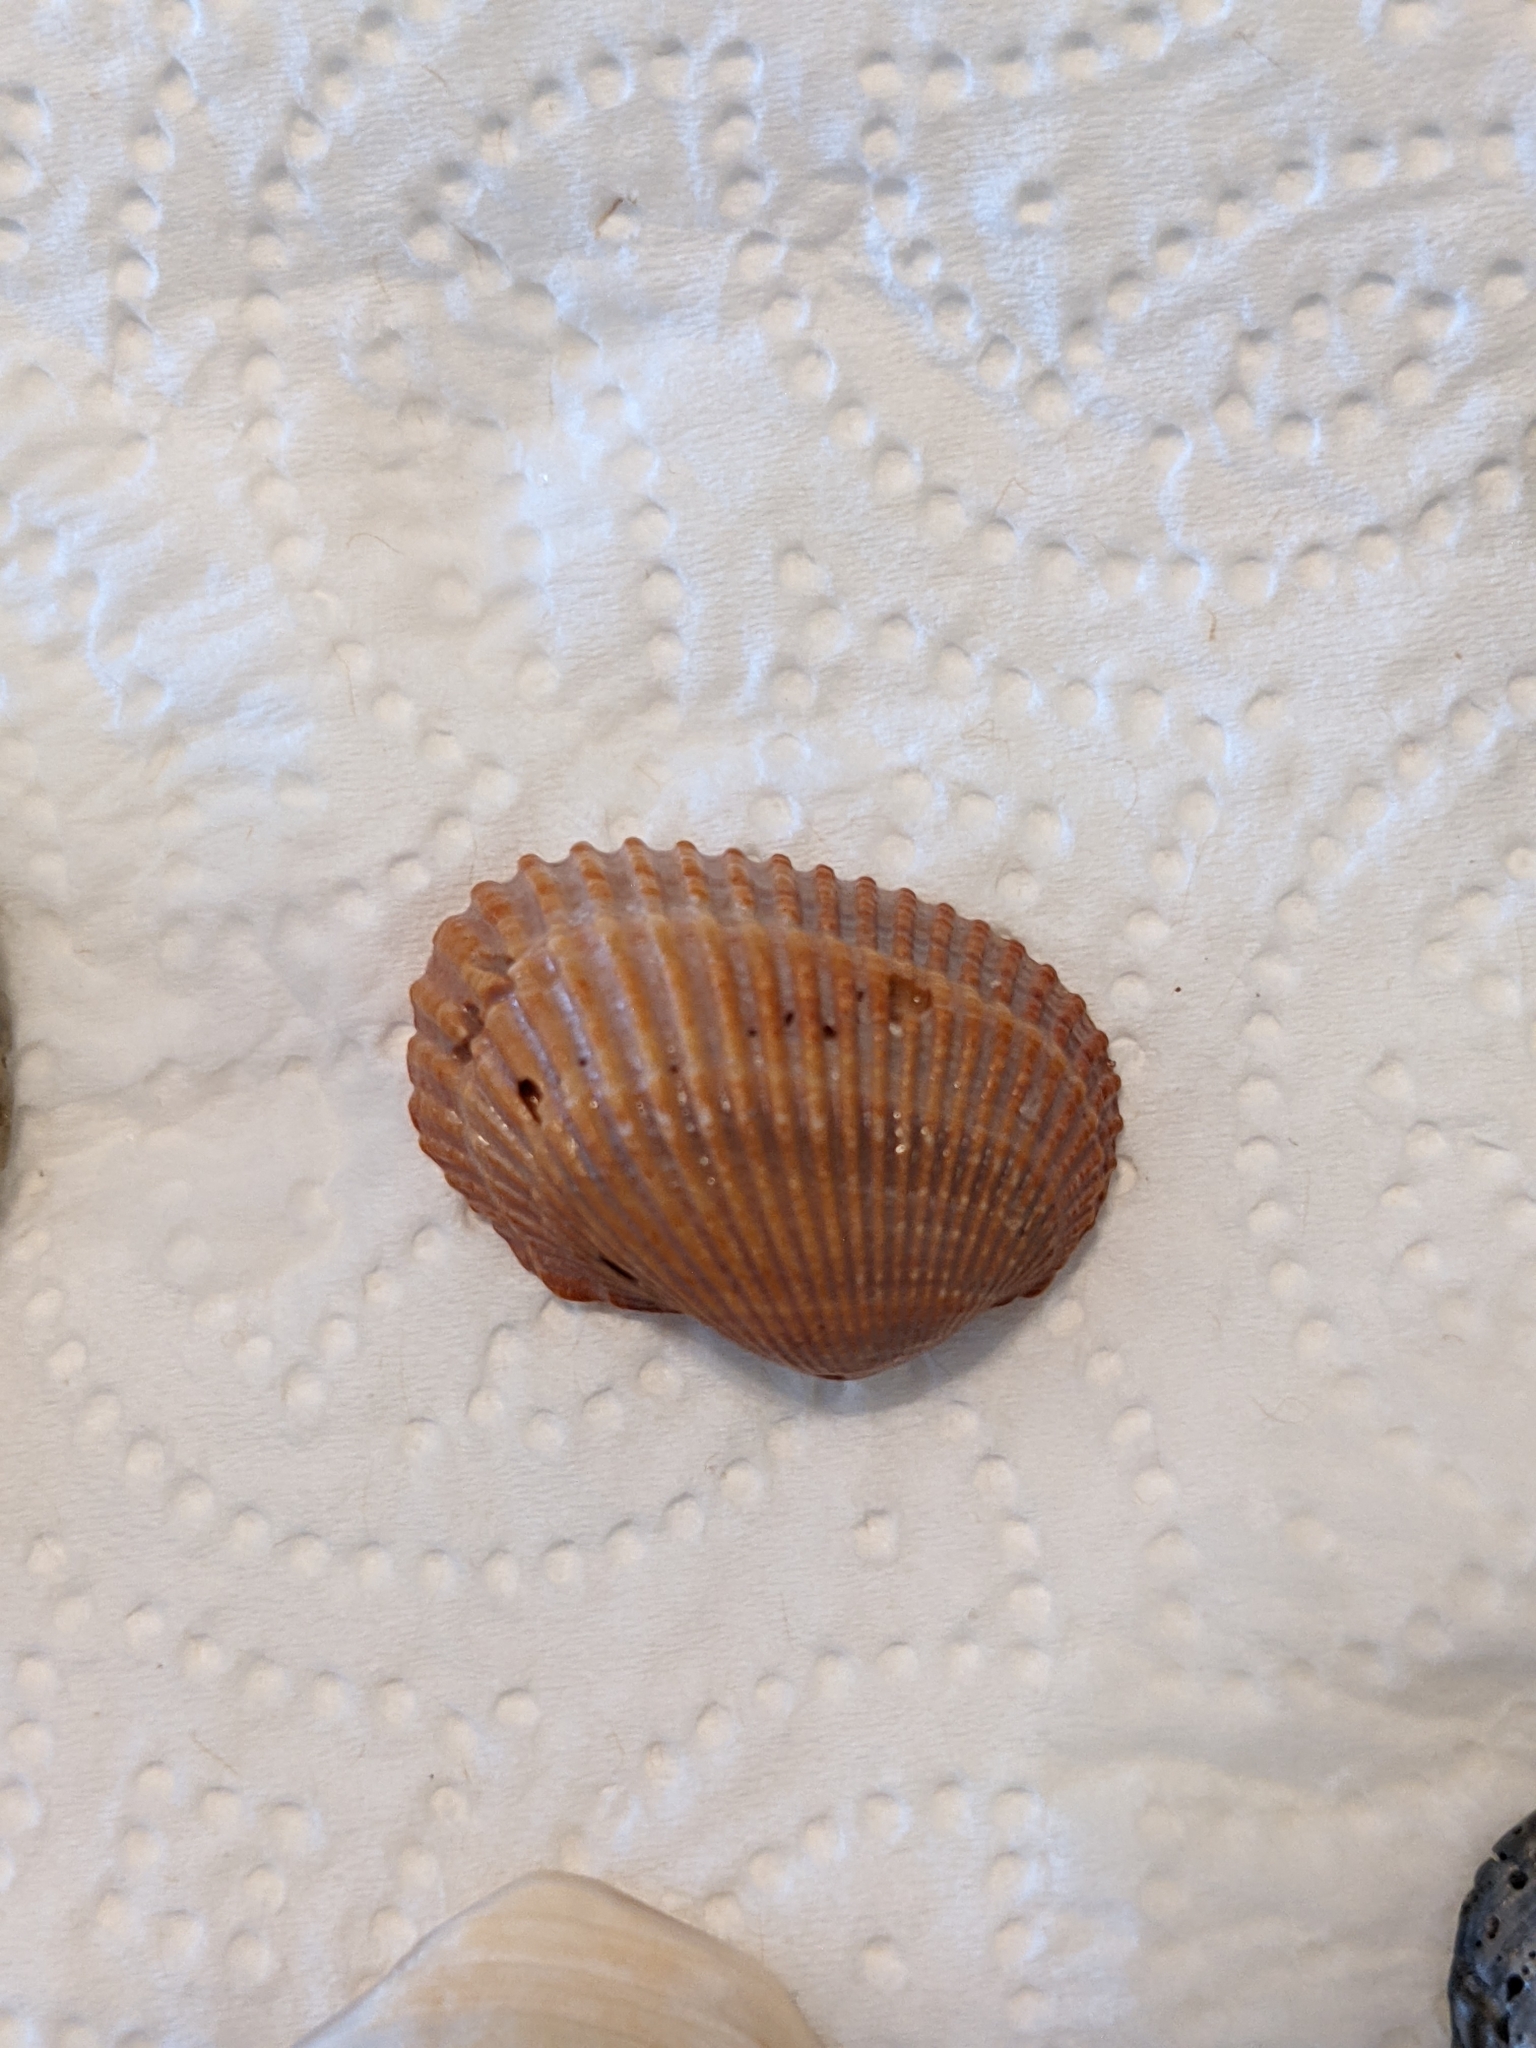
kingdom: Animalia
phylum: Mollusca
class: Bivalvia
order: Arcida
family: Arcidae
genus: Anadara
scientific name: Anadara transversa
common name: Transverse ark
